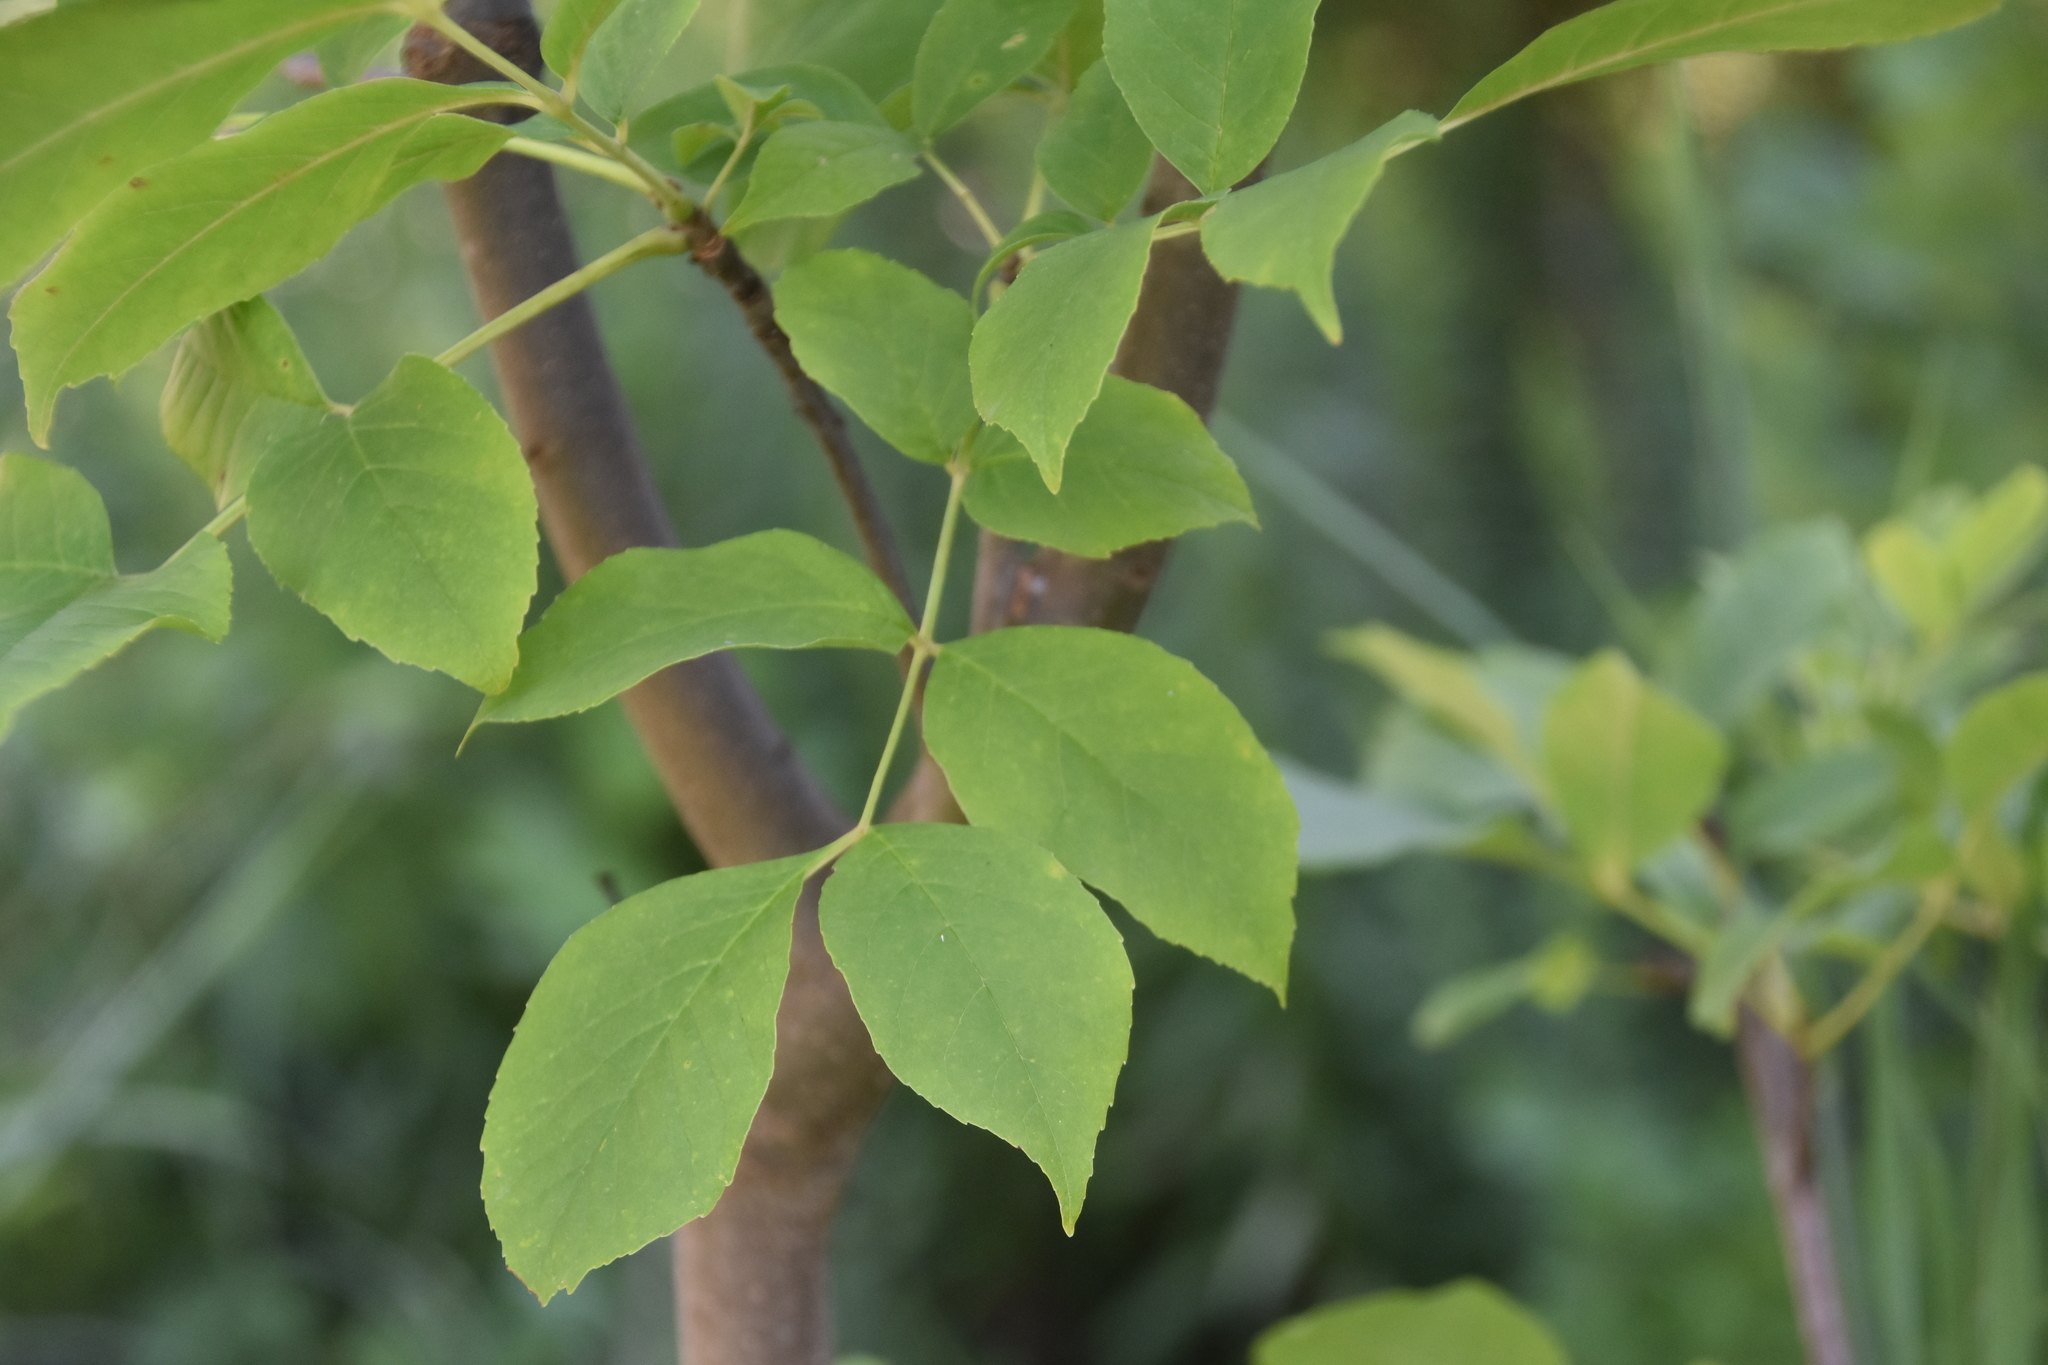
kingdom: Plantae
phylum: Tracheophyta
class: Magnoliopsida
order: Lamiales
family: Oleaceae
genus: Fraxinus
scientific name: Fraxinus americana
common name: White ash
